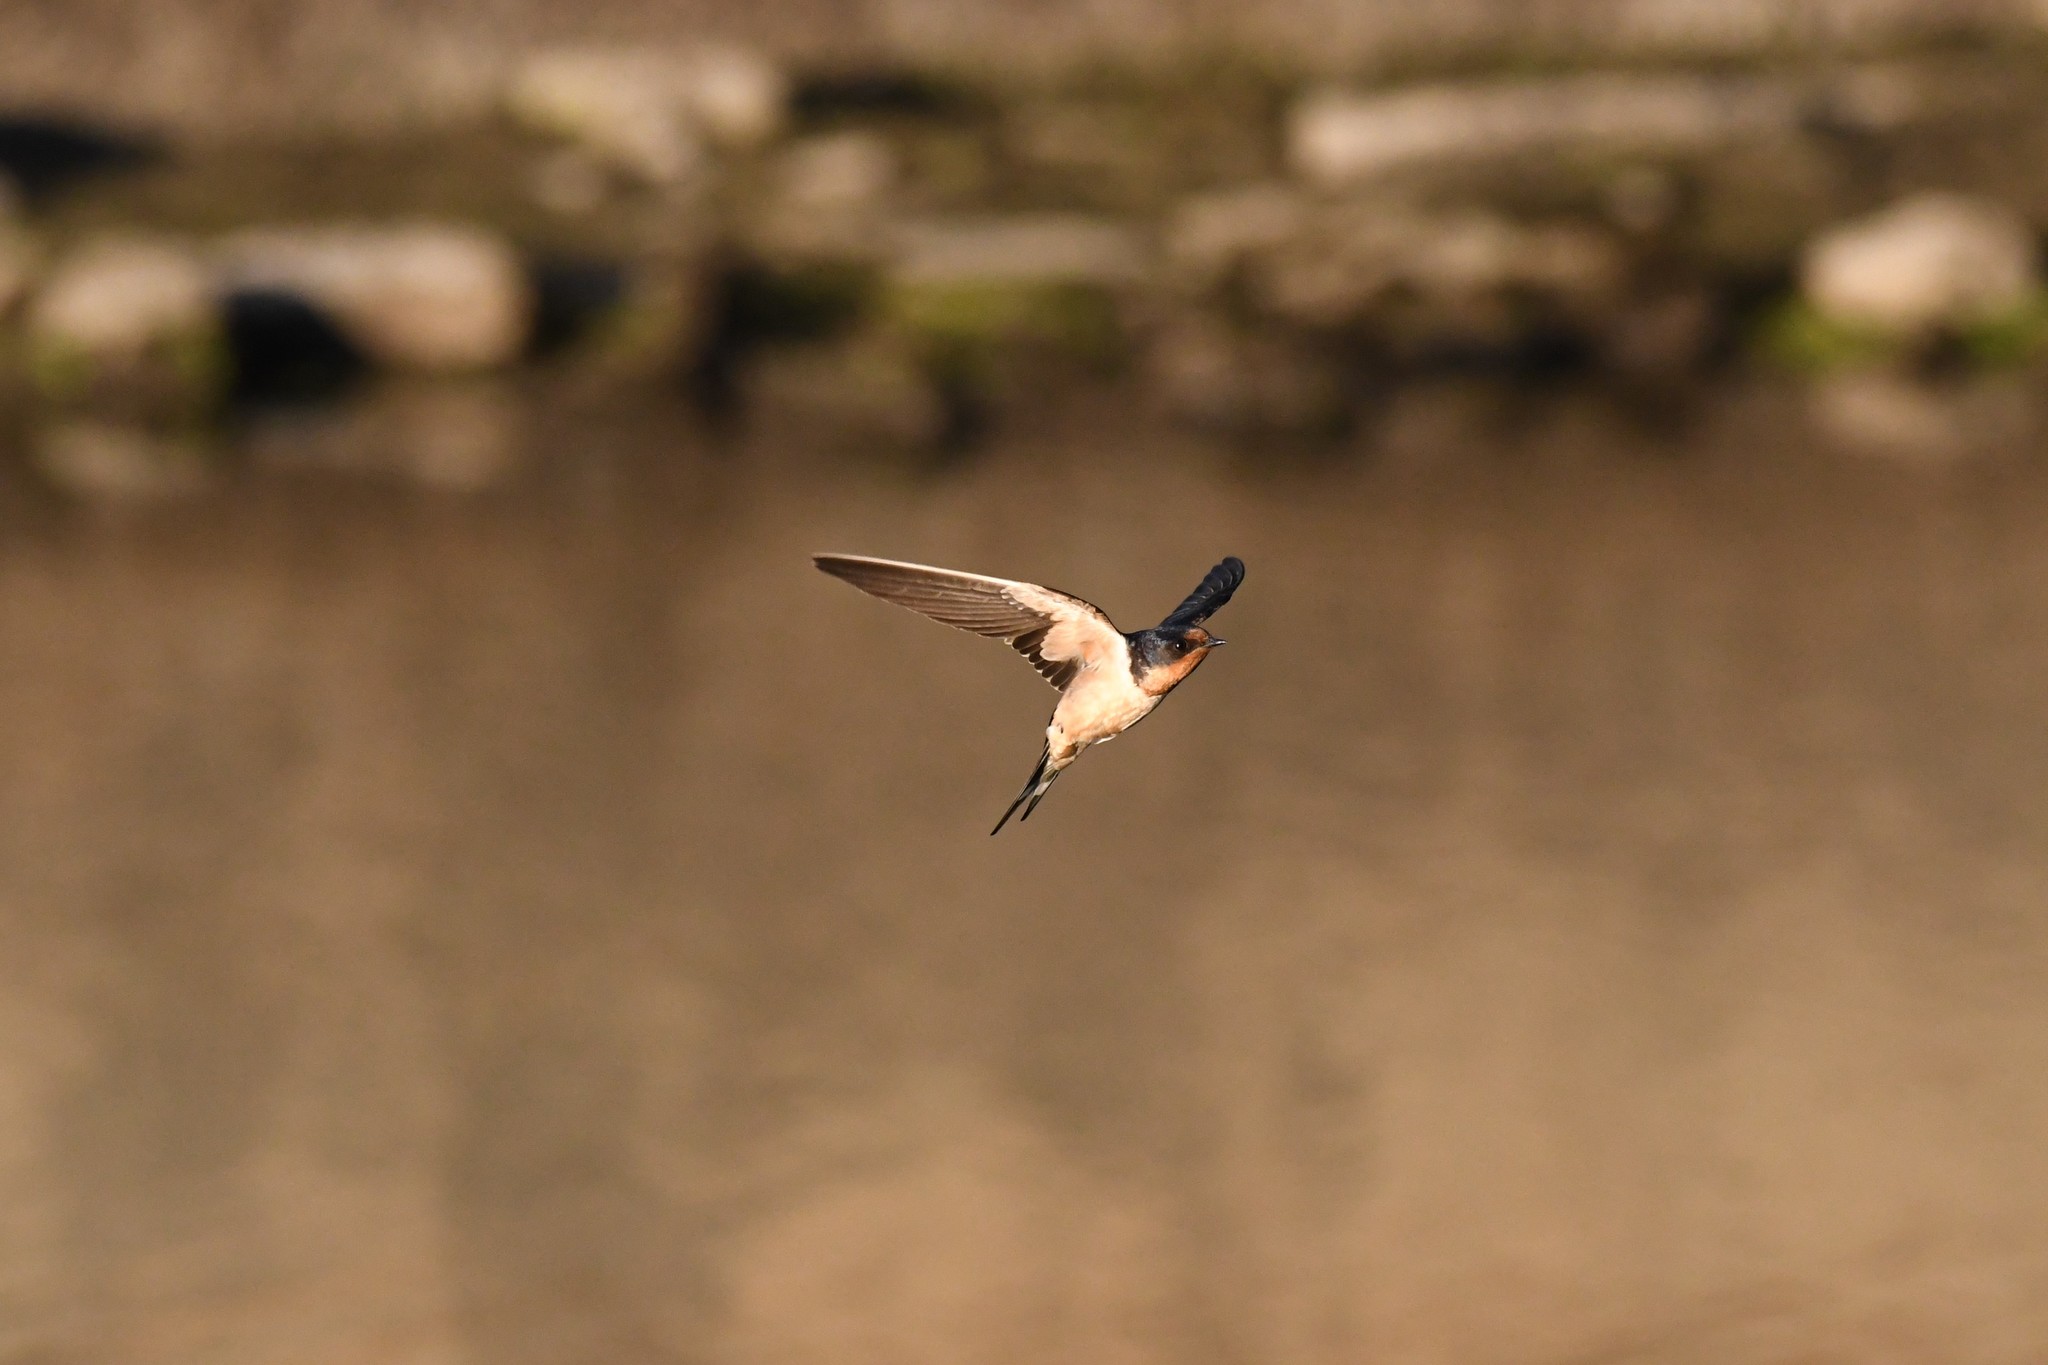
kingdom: Animalia
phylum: Chordata
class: Aves
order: Passeriformes
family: Hirundinidae
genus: Hirundo
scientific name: Hirundo rustica
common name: Barn swallow
